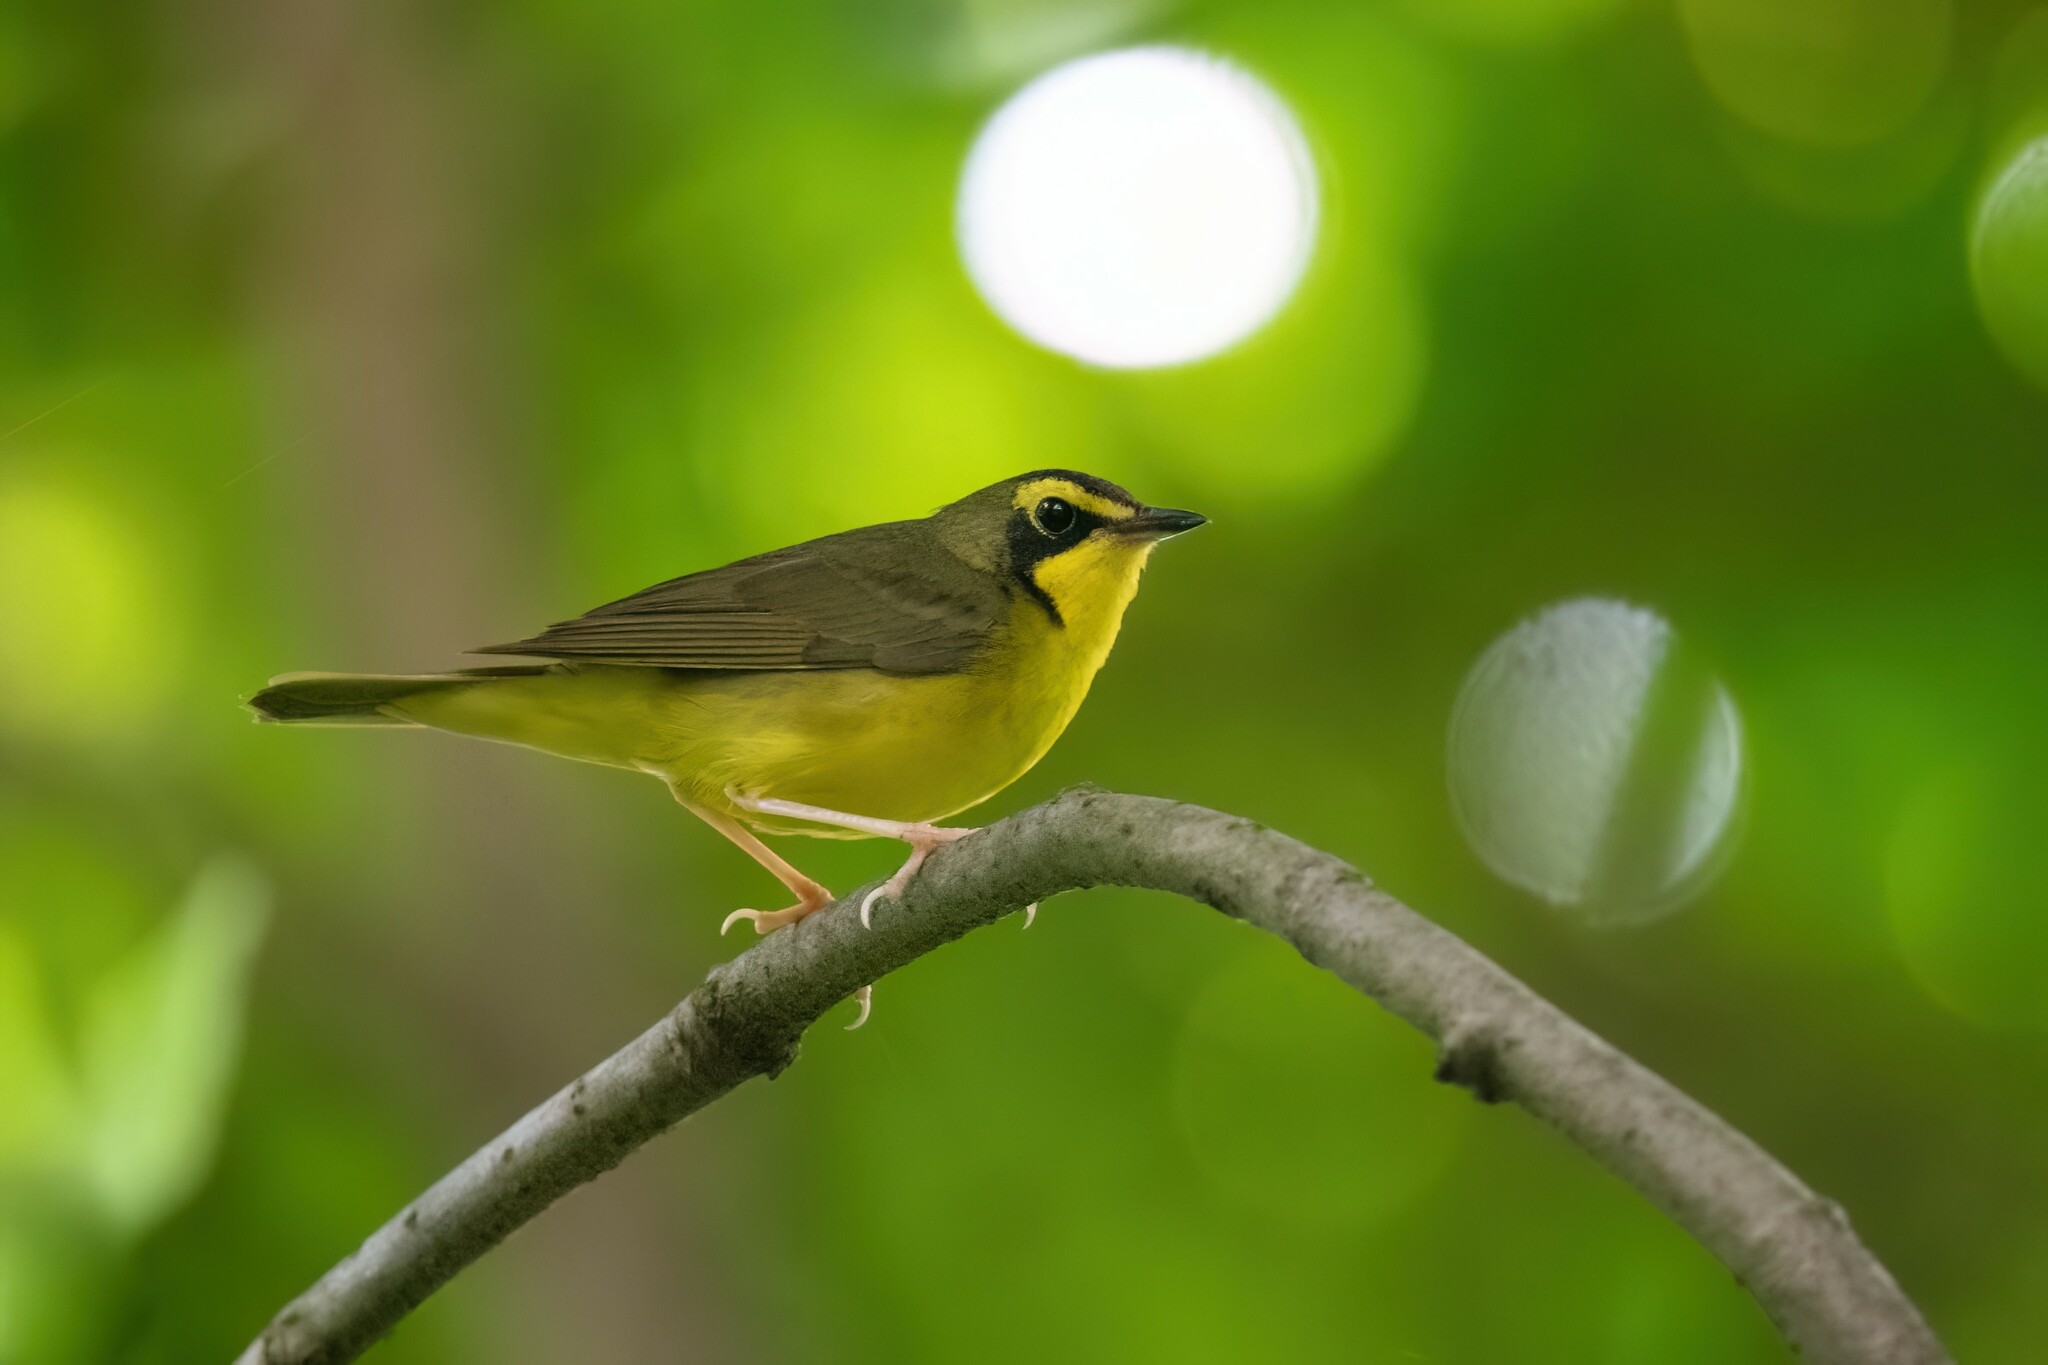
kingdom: Animalia
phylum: Chordata
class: Aves
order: Passeriformes
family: Parulidae
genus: Geothlypis
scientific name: Geothlypis formosa
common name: Kentucky warbler
